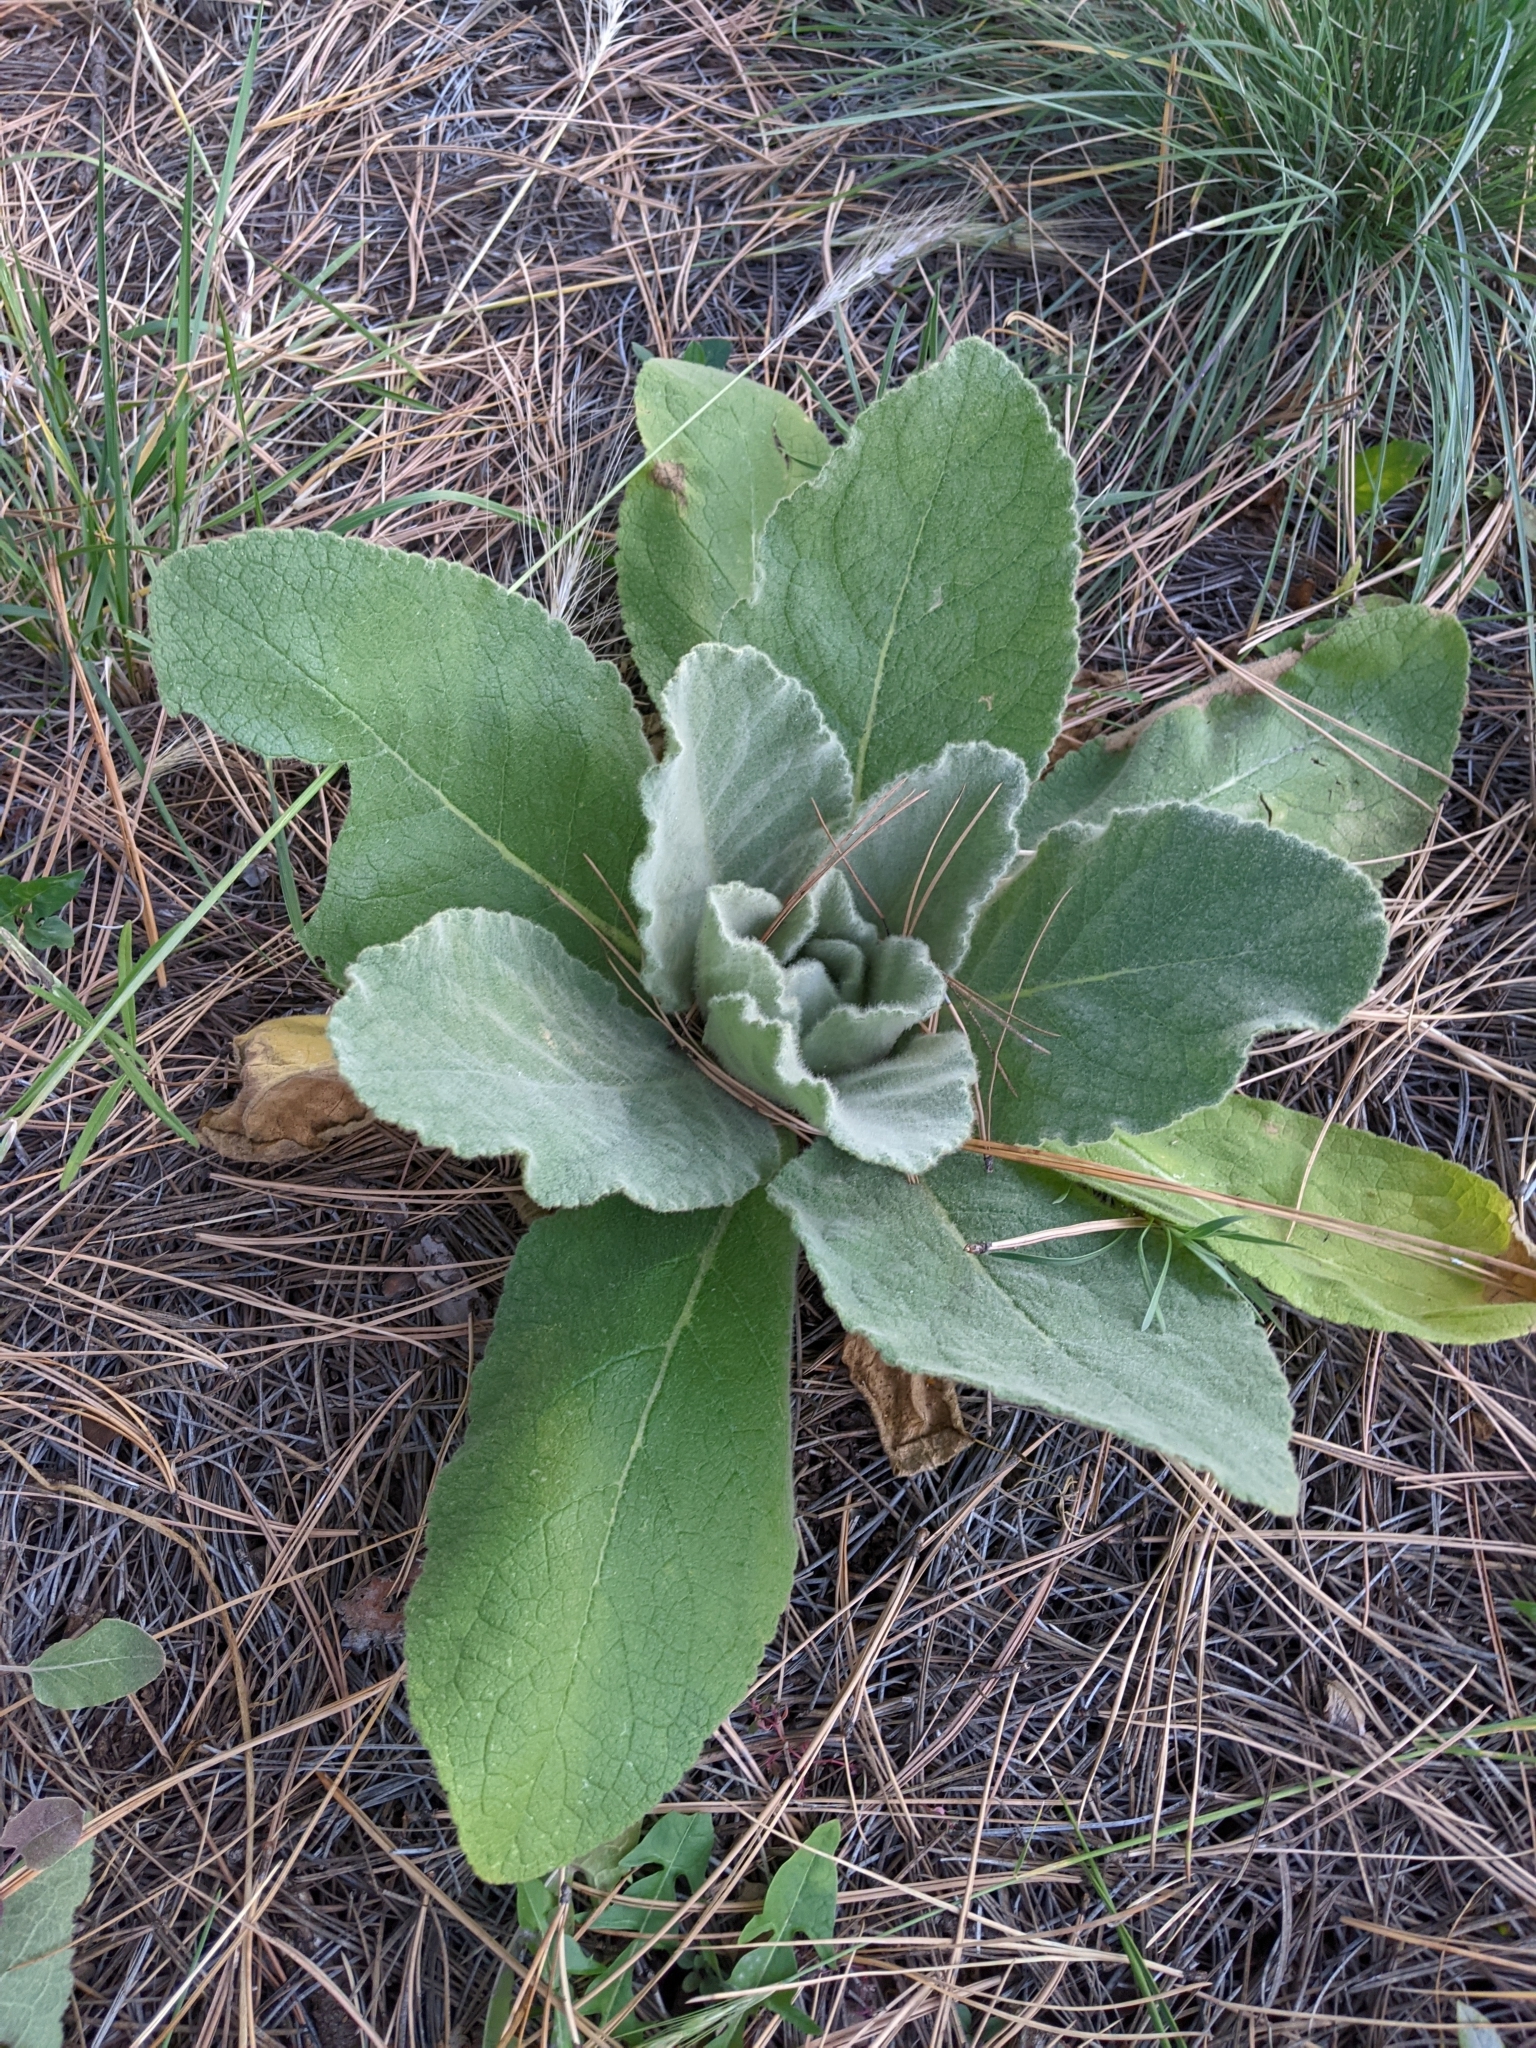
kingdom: Plantae
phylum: Tracheophyta
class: Magnoliopsida
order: Lamiales
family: Scrophulariaceae
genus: Verbascum
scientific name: Verbascum thapsus
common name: Common mullein
